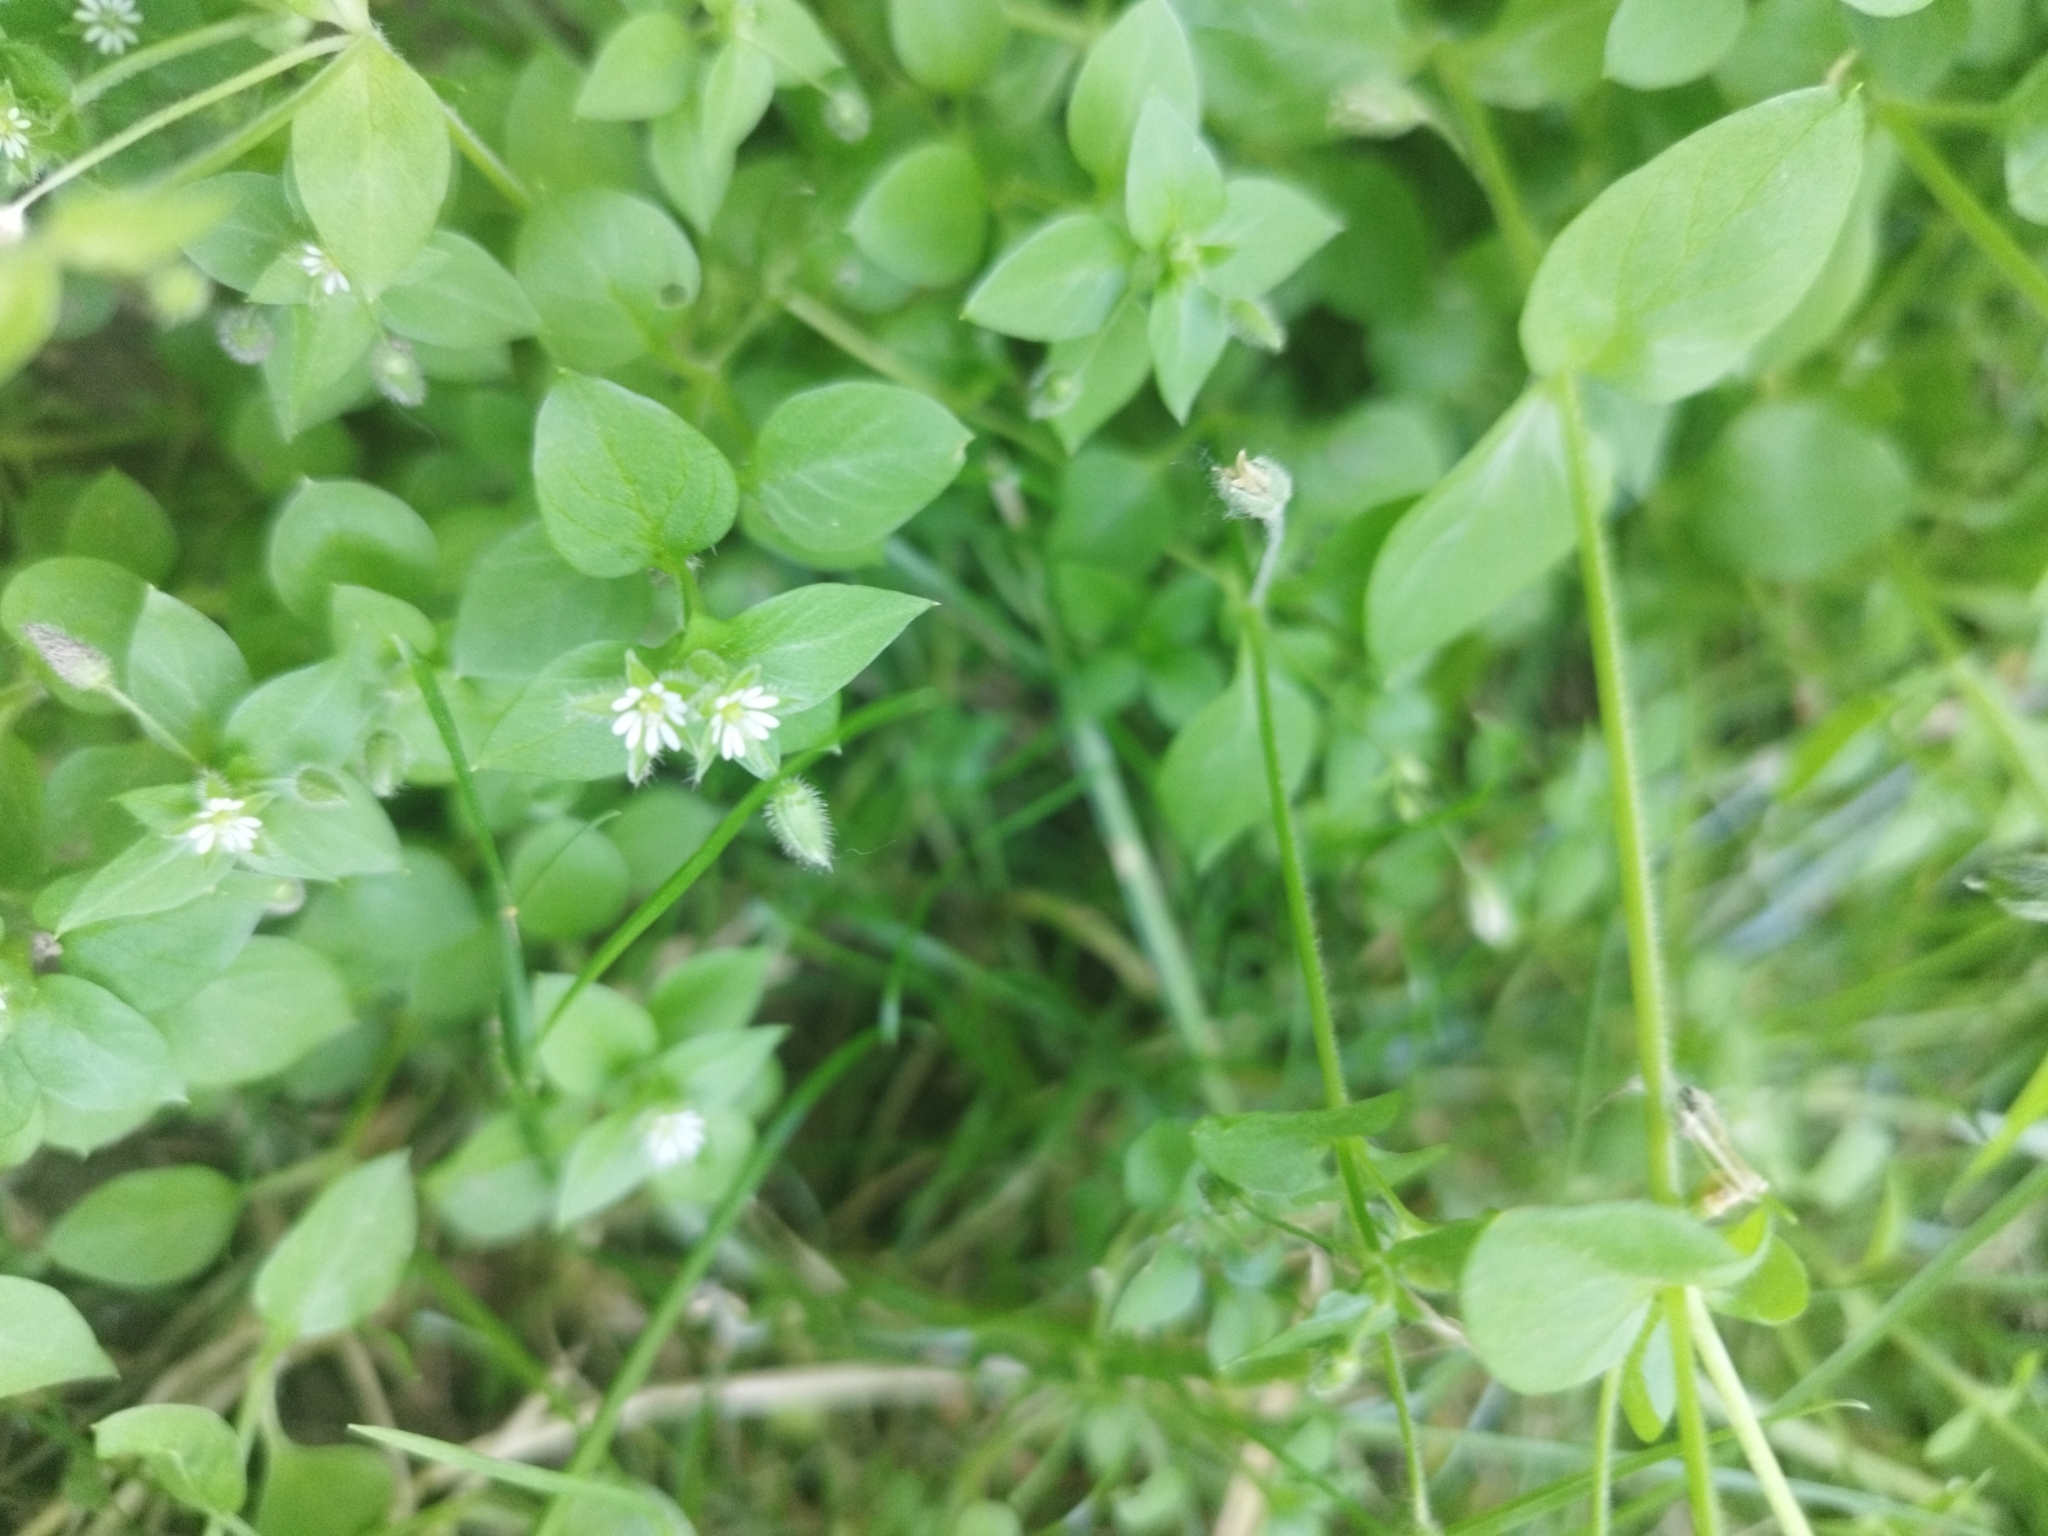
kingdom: Plantae
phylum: Tracheophyta
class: Magnoliopsida
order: Caryophyllales
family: Caryophyllaceae
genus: Stellaria
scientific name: Stellaria media
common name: Common chickweed
